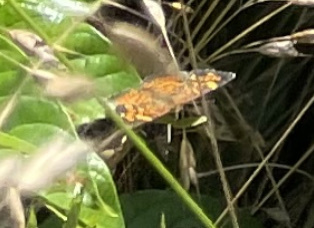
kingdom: Animalia
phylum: Arthropoda
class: Insecta
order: Lepidoptera
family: Nymphalidae
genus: Phyciodes
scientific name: Phyciodes tharos
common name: Pearl crescent
